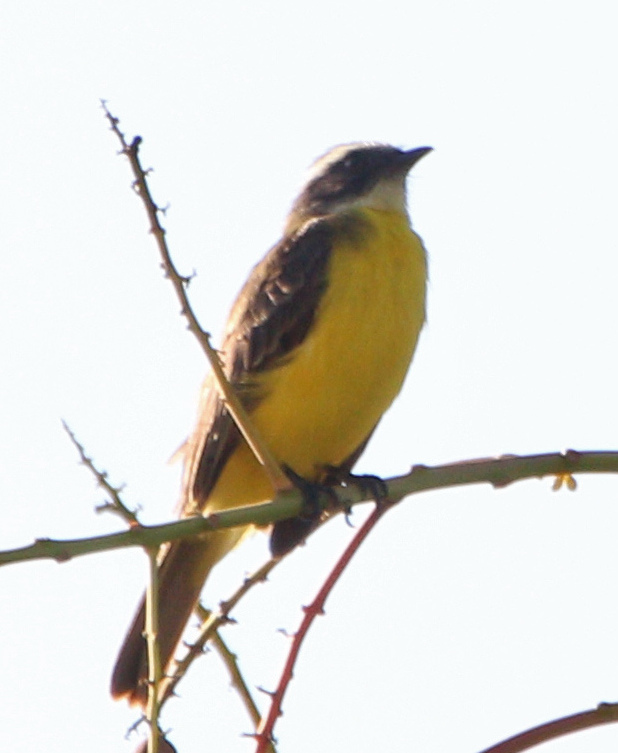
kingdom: Animalia
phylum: Chordata
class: Aves
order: Passeriformes
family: Tyrannidae
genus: Myiozetetes
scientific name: Myiozetetes similis
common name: Social flycatcher
